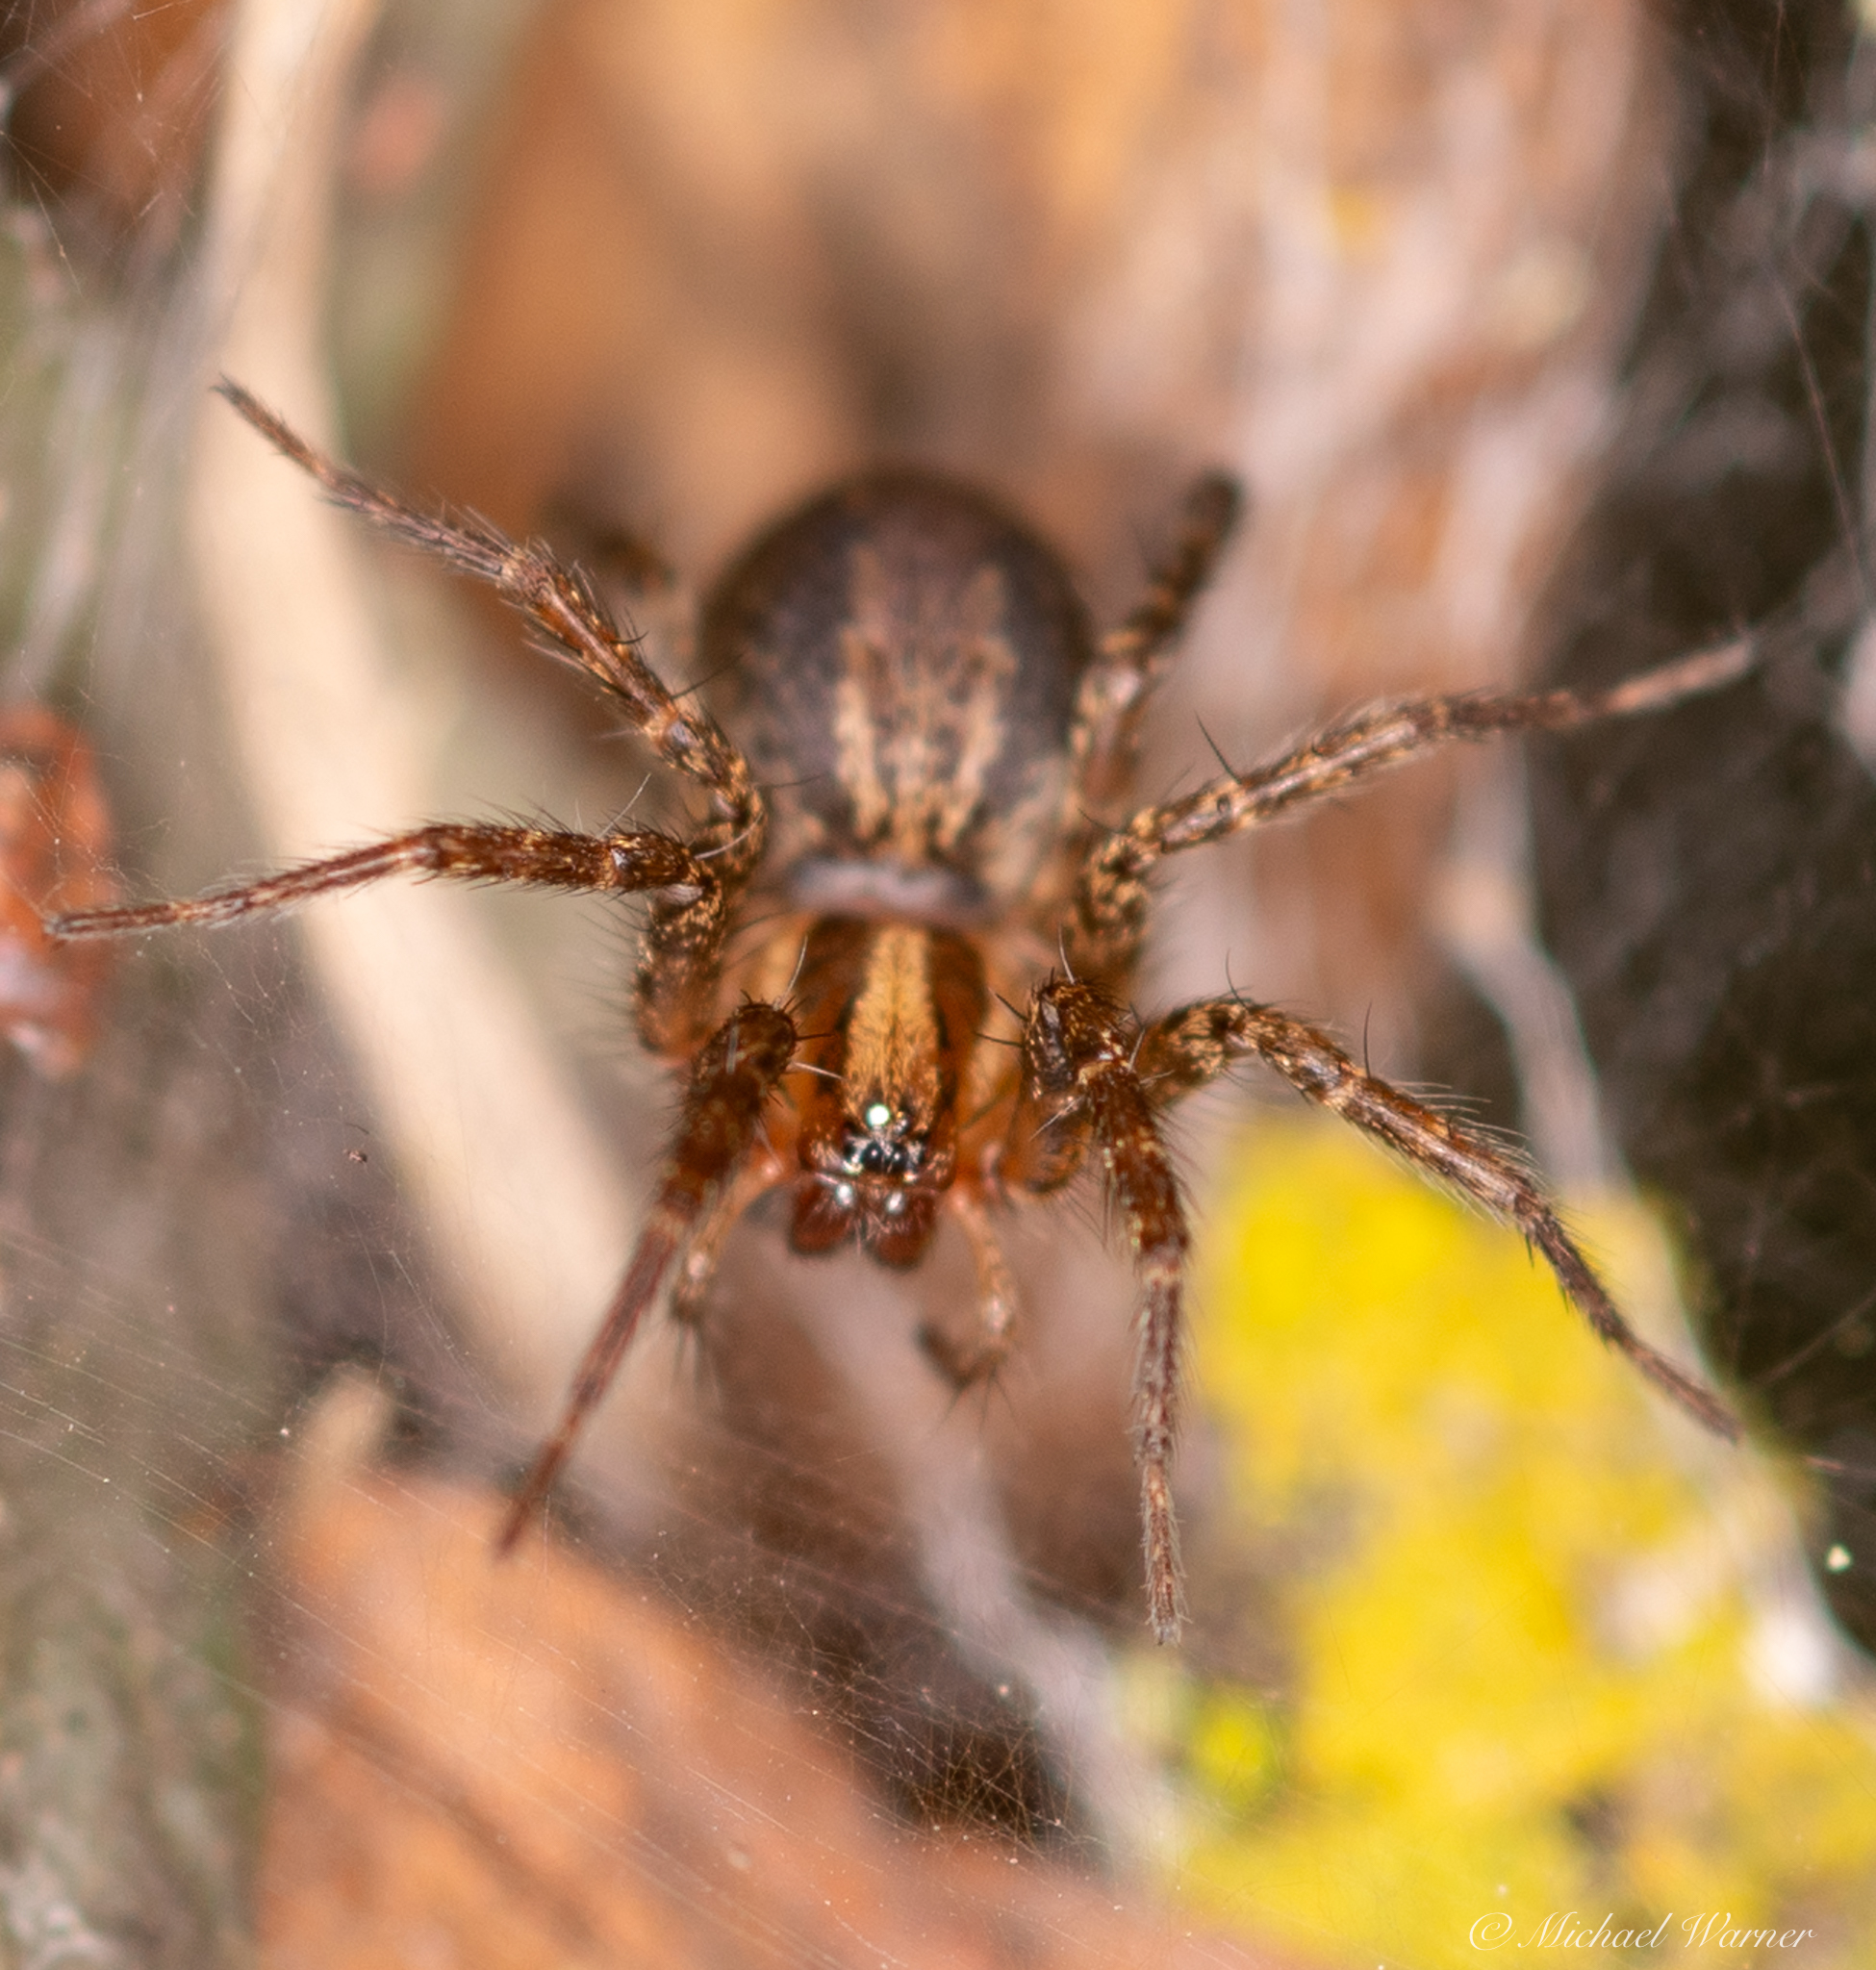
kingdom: Animalia
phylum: Arthropoda
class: Arachnida
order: Araneae
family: Agelenidae
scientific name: Agelenidae
